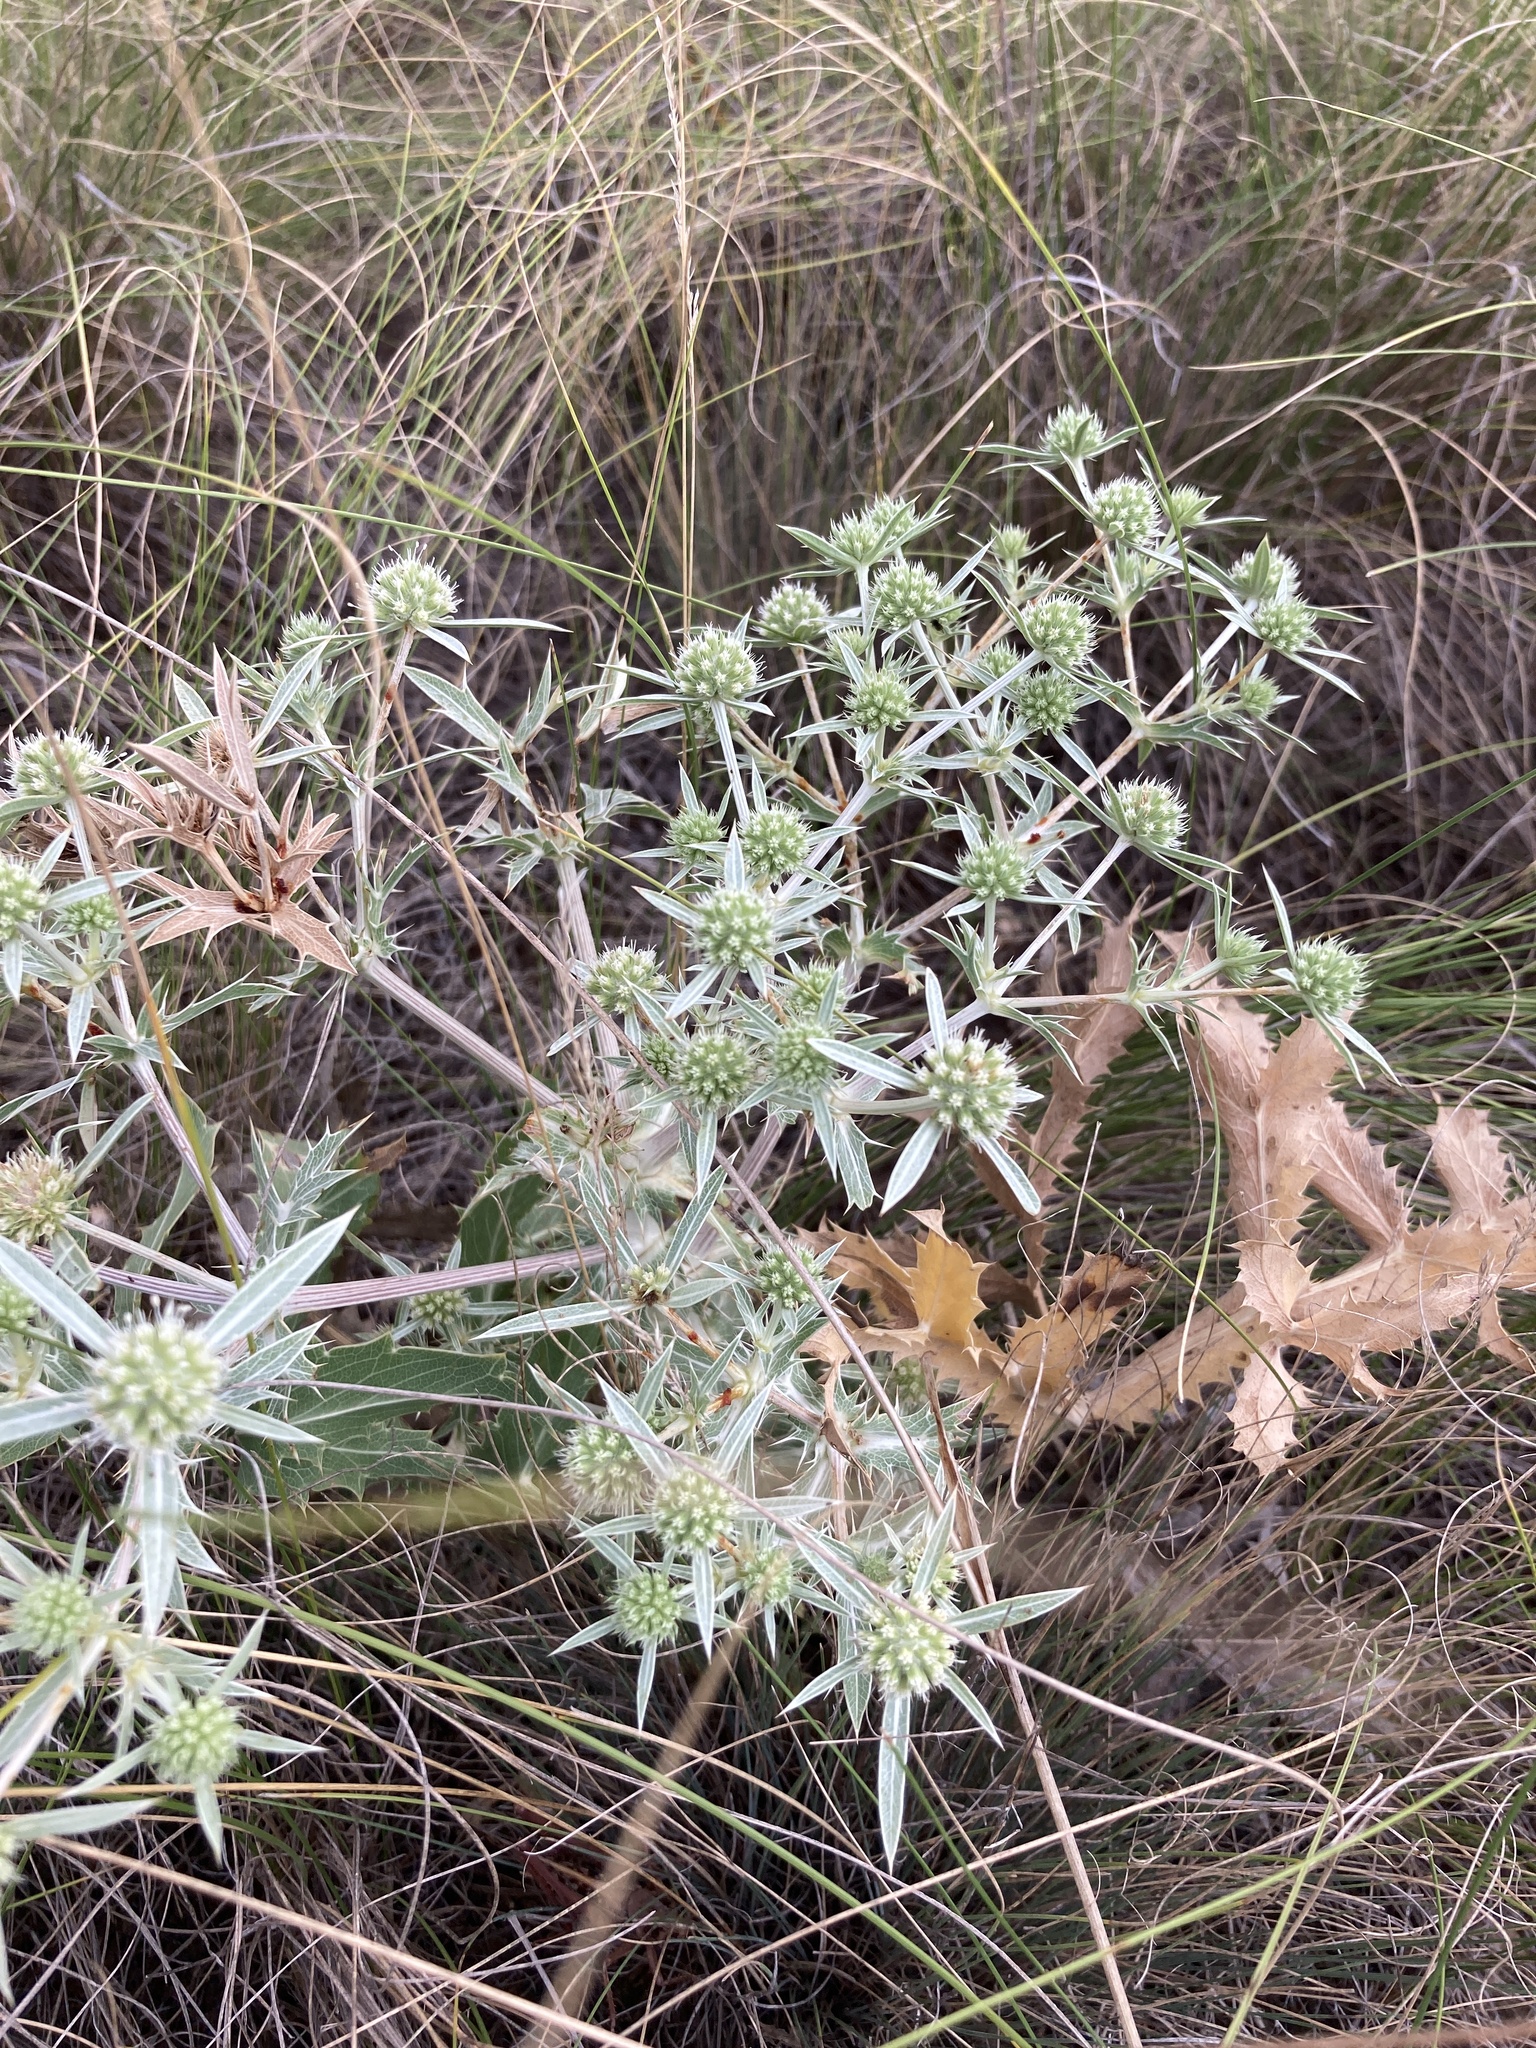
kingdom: Plantae
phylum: Tracheophyta
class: Magnoliopsida
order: Apiales
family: Apiaceae
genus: Eryngium
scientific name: Eryngium campestre
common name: Field eryngo
